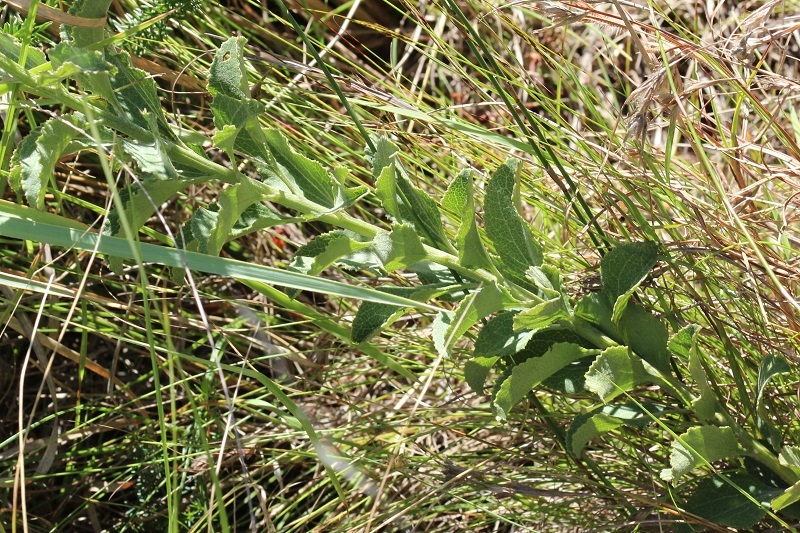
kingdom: Plantae
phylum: Tracheophyta
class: Magnoliopsida
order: Asterales
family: Asteraceae
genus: Senecio
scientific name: Senecio crenatus
